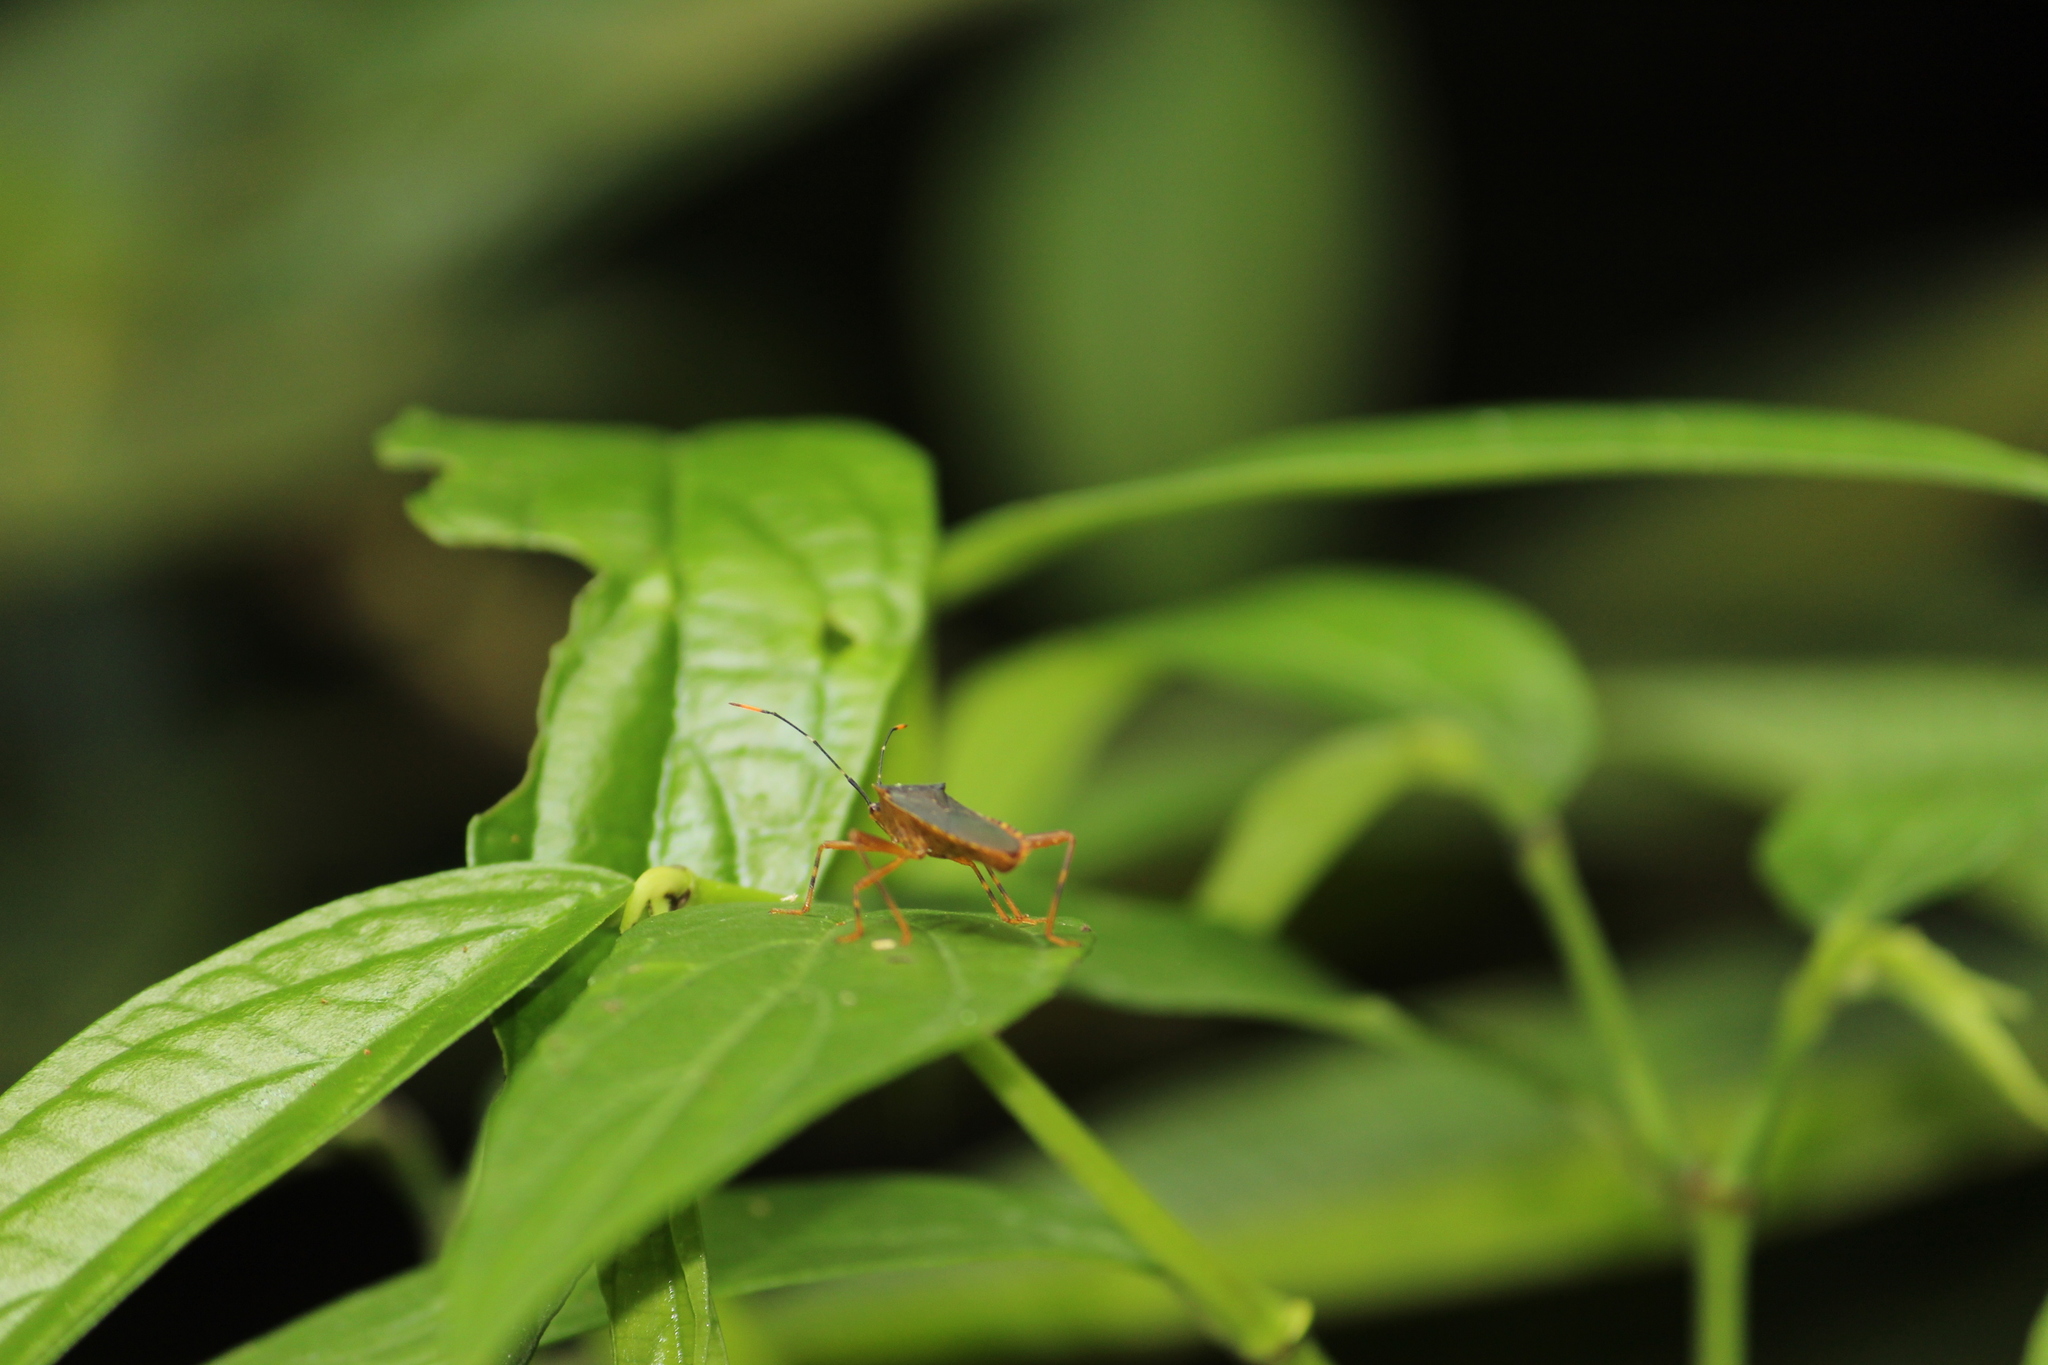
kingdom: Animalia
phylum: Arthropoda
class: Insecta
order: Hemiptera
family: Coreidae
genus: Leptoscelis
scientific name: Leptoscelis elongator
